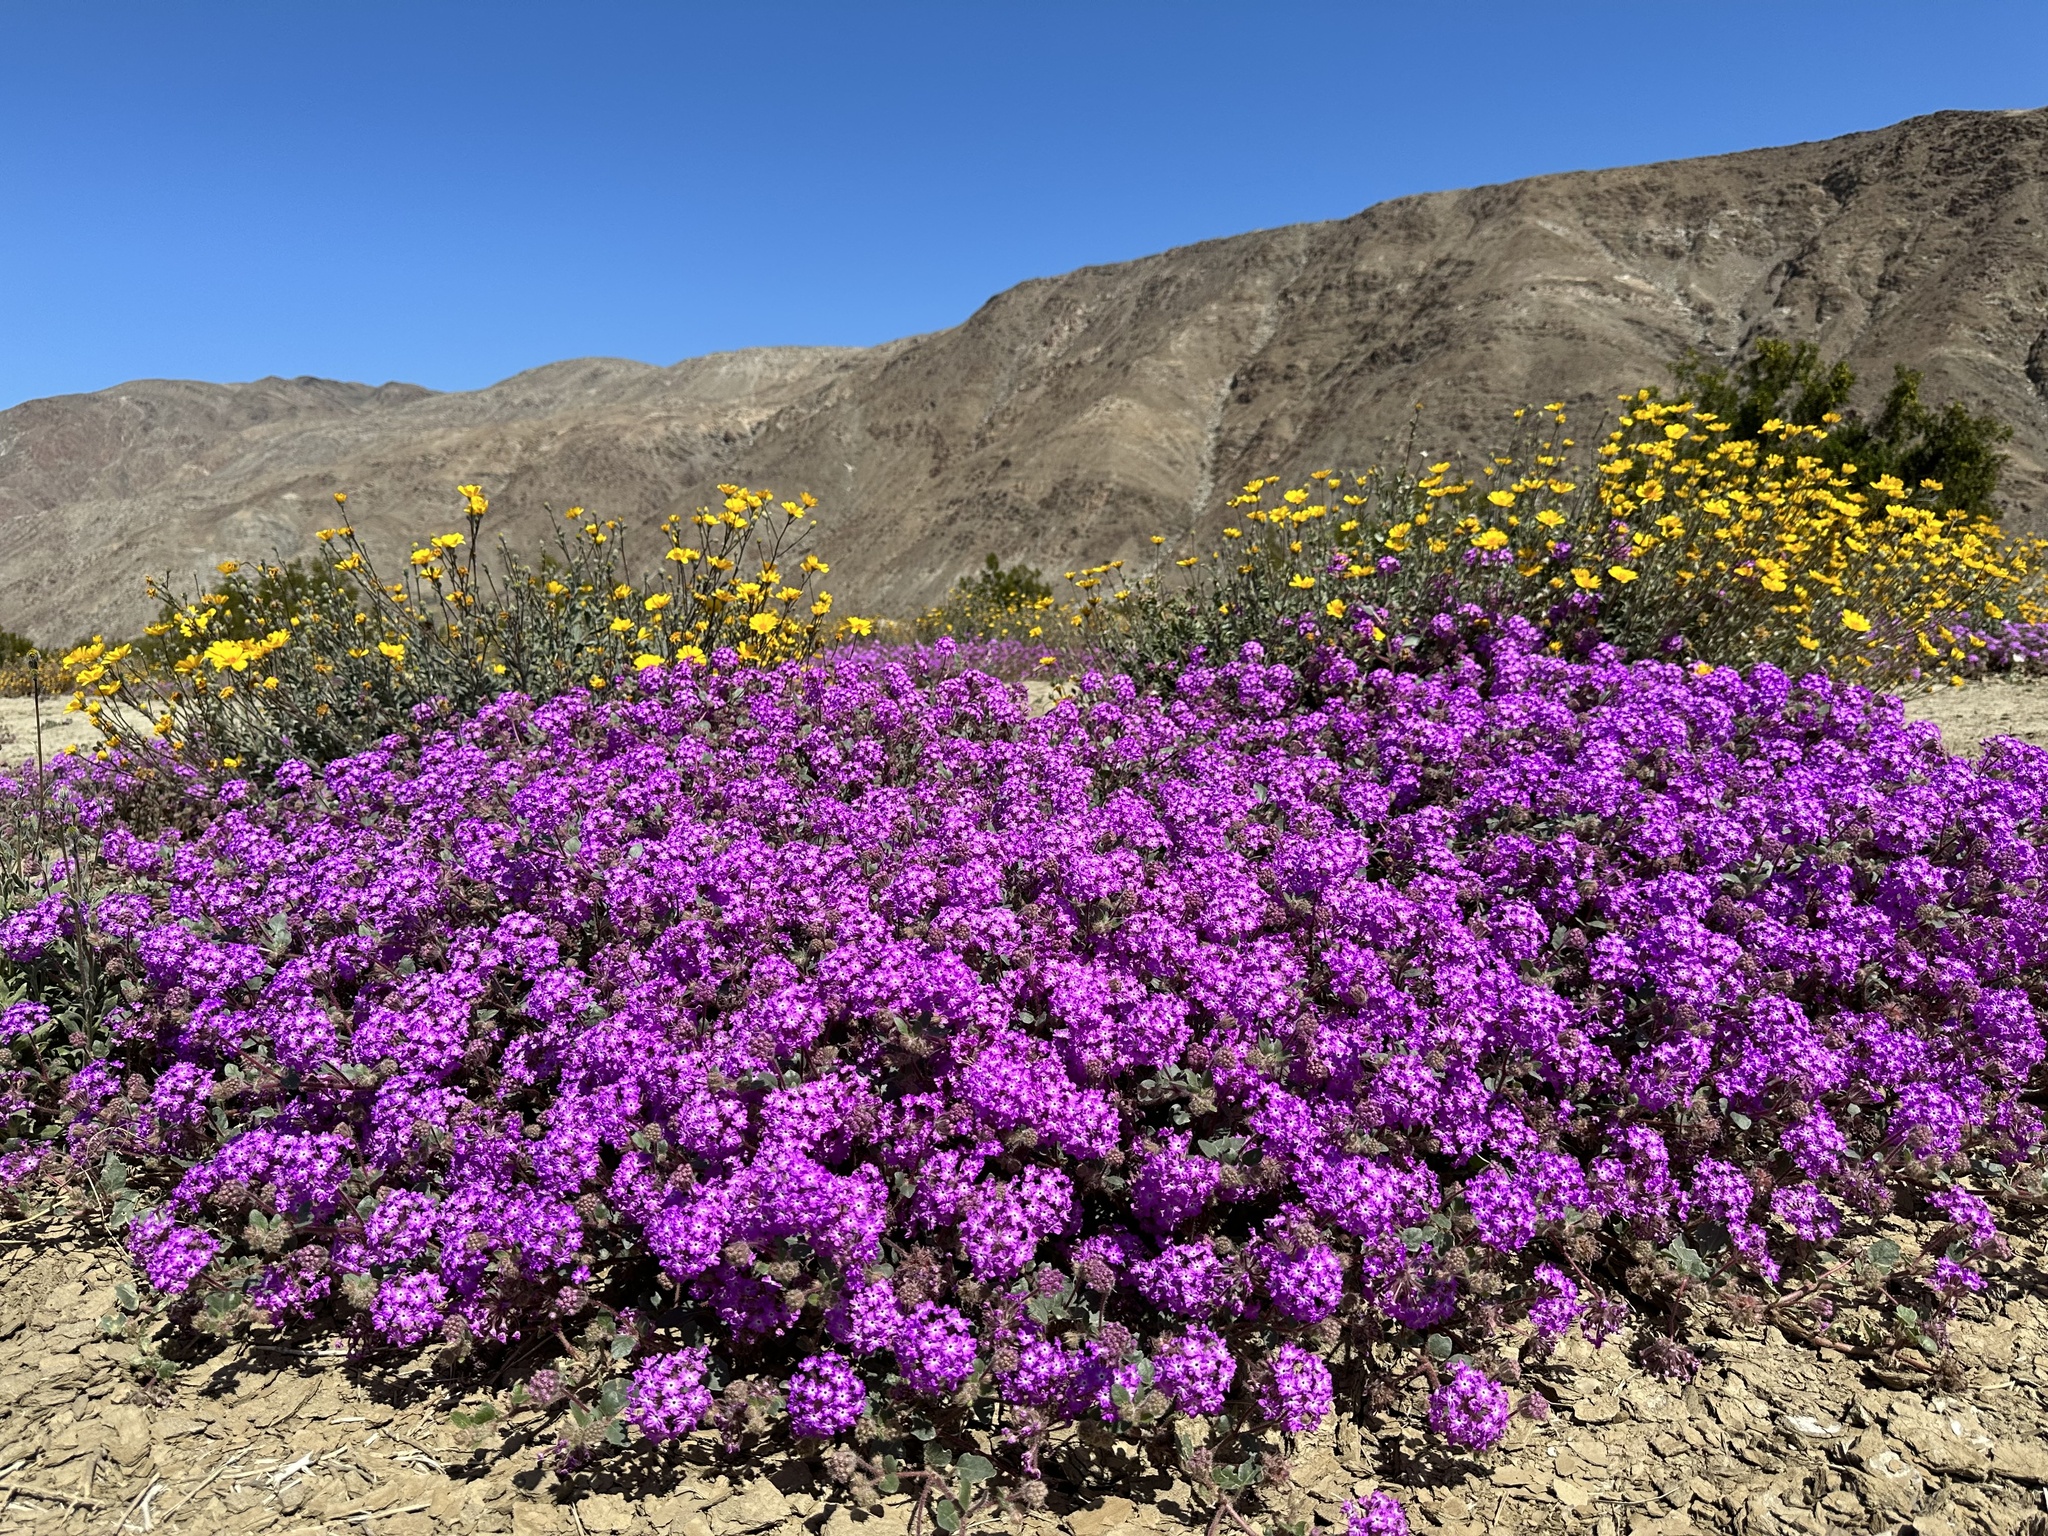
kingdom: Plantae
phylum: Tracheophyta
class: Magnoliopsida
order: Caryophyllales
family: Nyctaginaceae
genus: Abronia
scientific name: Abronia villosa
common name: Desert sand-verbena
